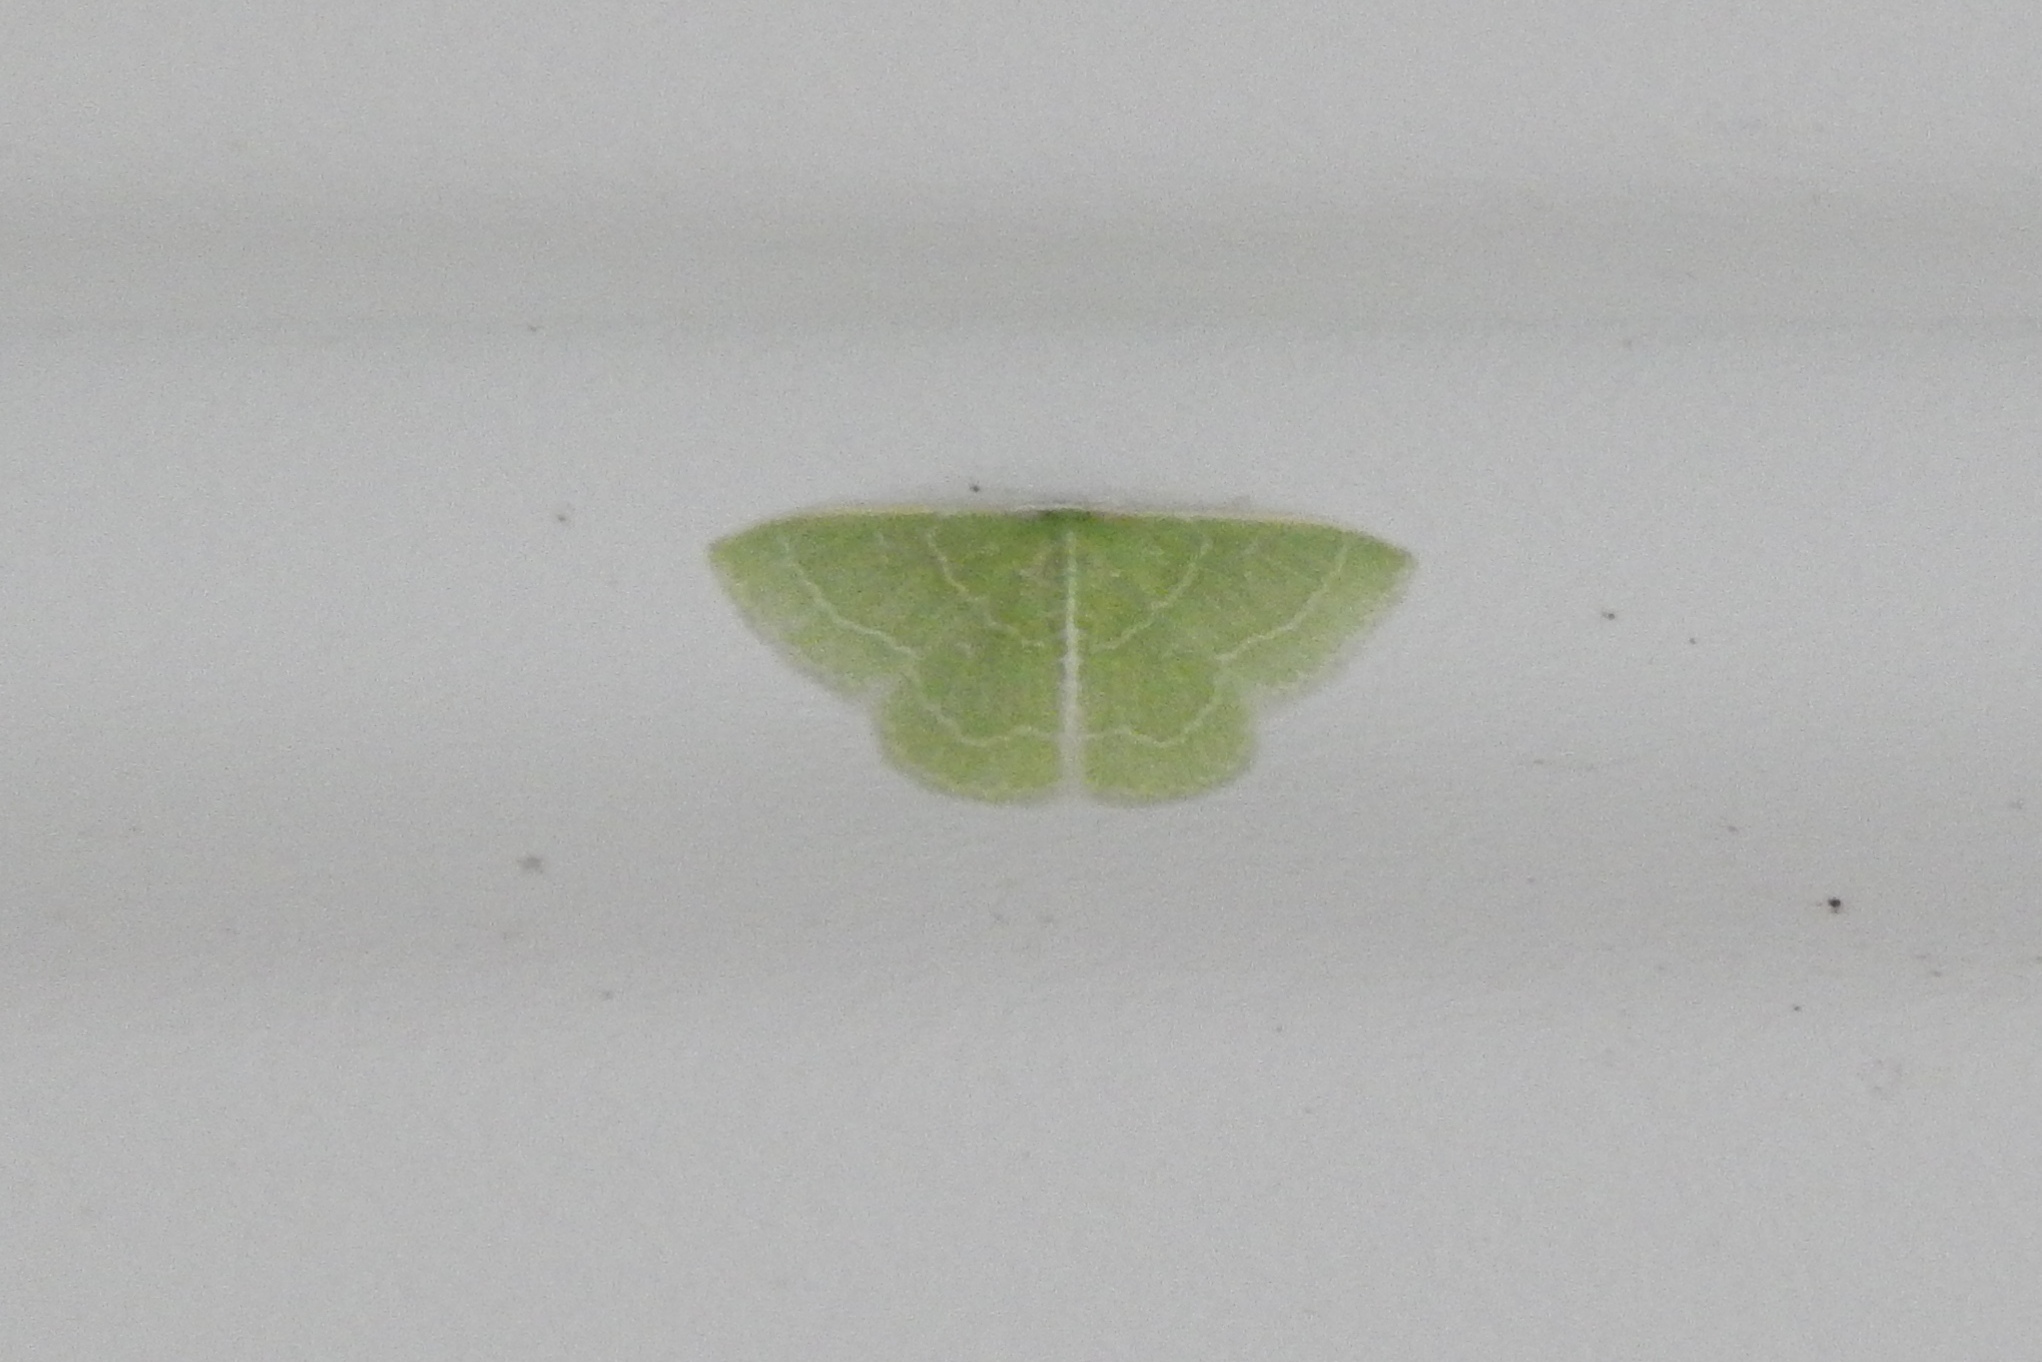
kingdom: Animalia
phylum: Arthropoda
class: Insecta
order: Lepidoptera
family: Geometridae
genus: Synchlora
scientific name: Synchlora aerata
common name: Wavy-lined emerald
